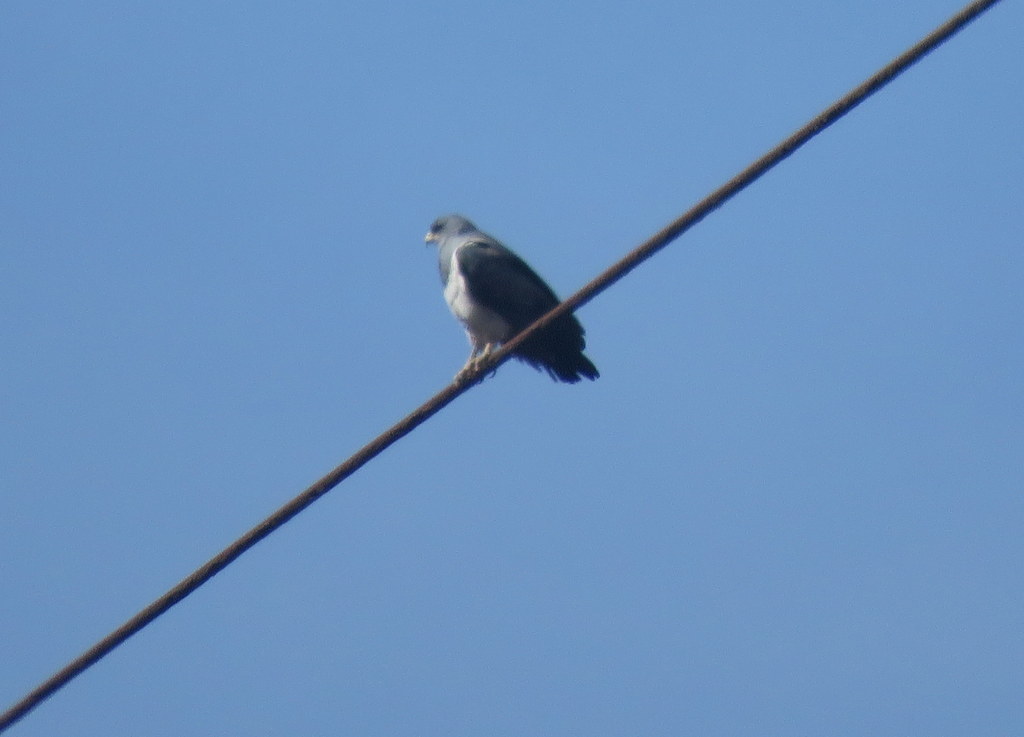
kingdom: Animalia
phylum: Chordata
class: Aves
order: Accipitriformes
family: Accipitridae
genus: Geranoaetus
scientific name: Geranoaetus melanoleucus
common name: Black-chested buzzard-eagle
